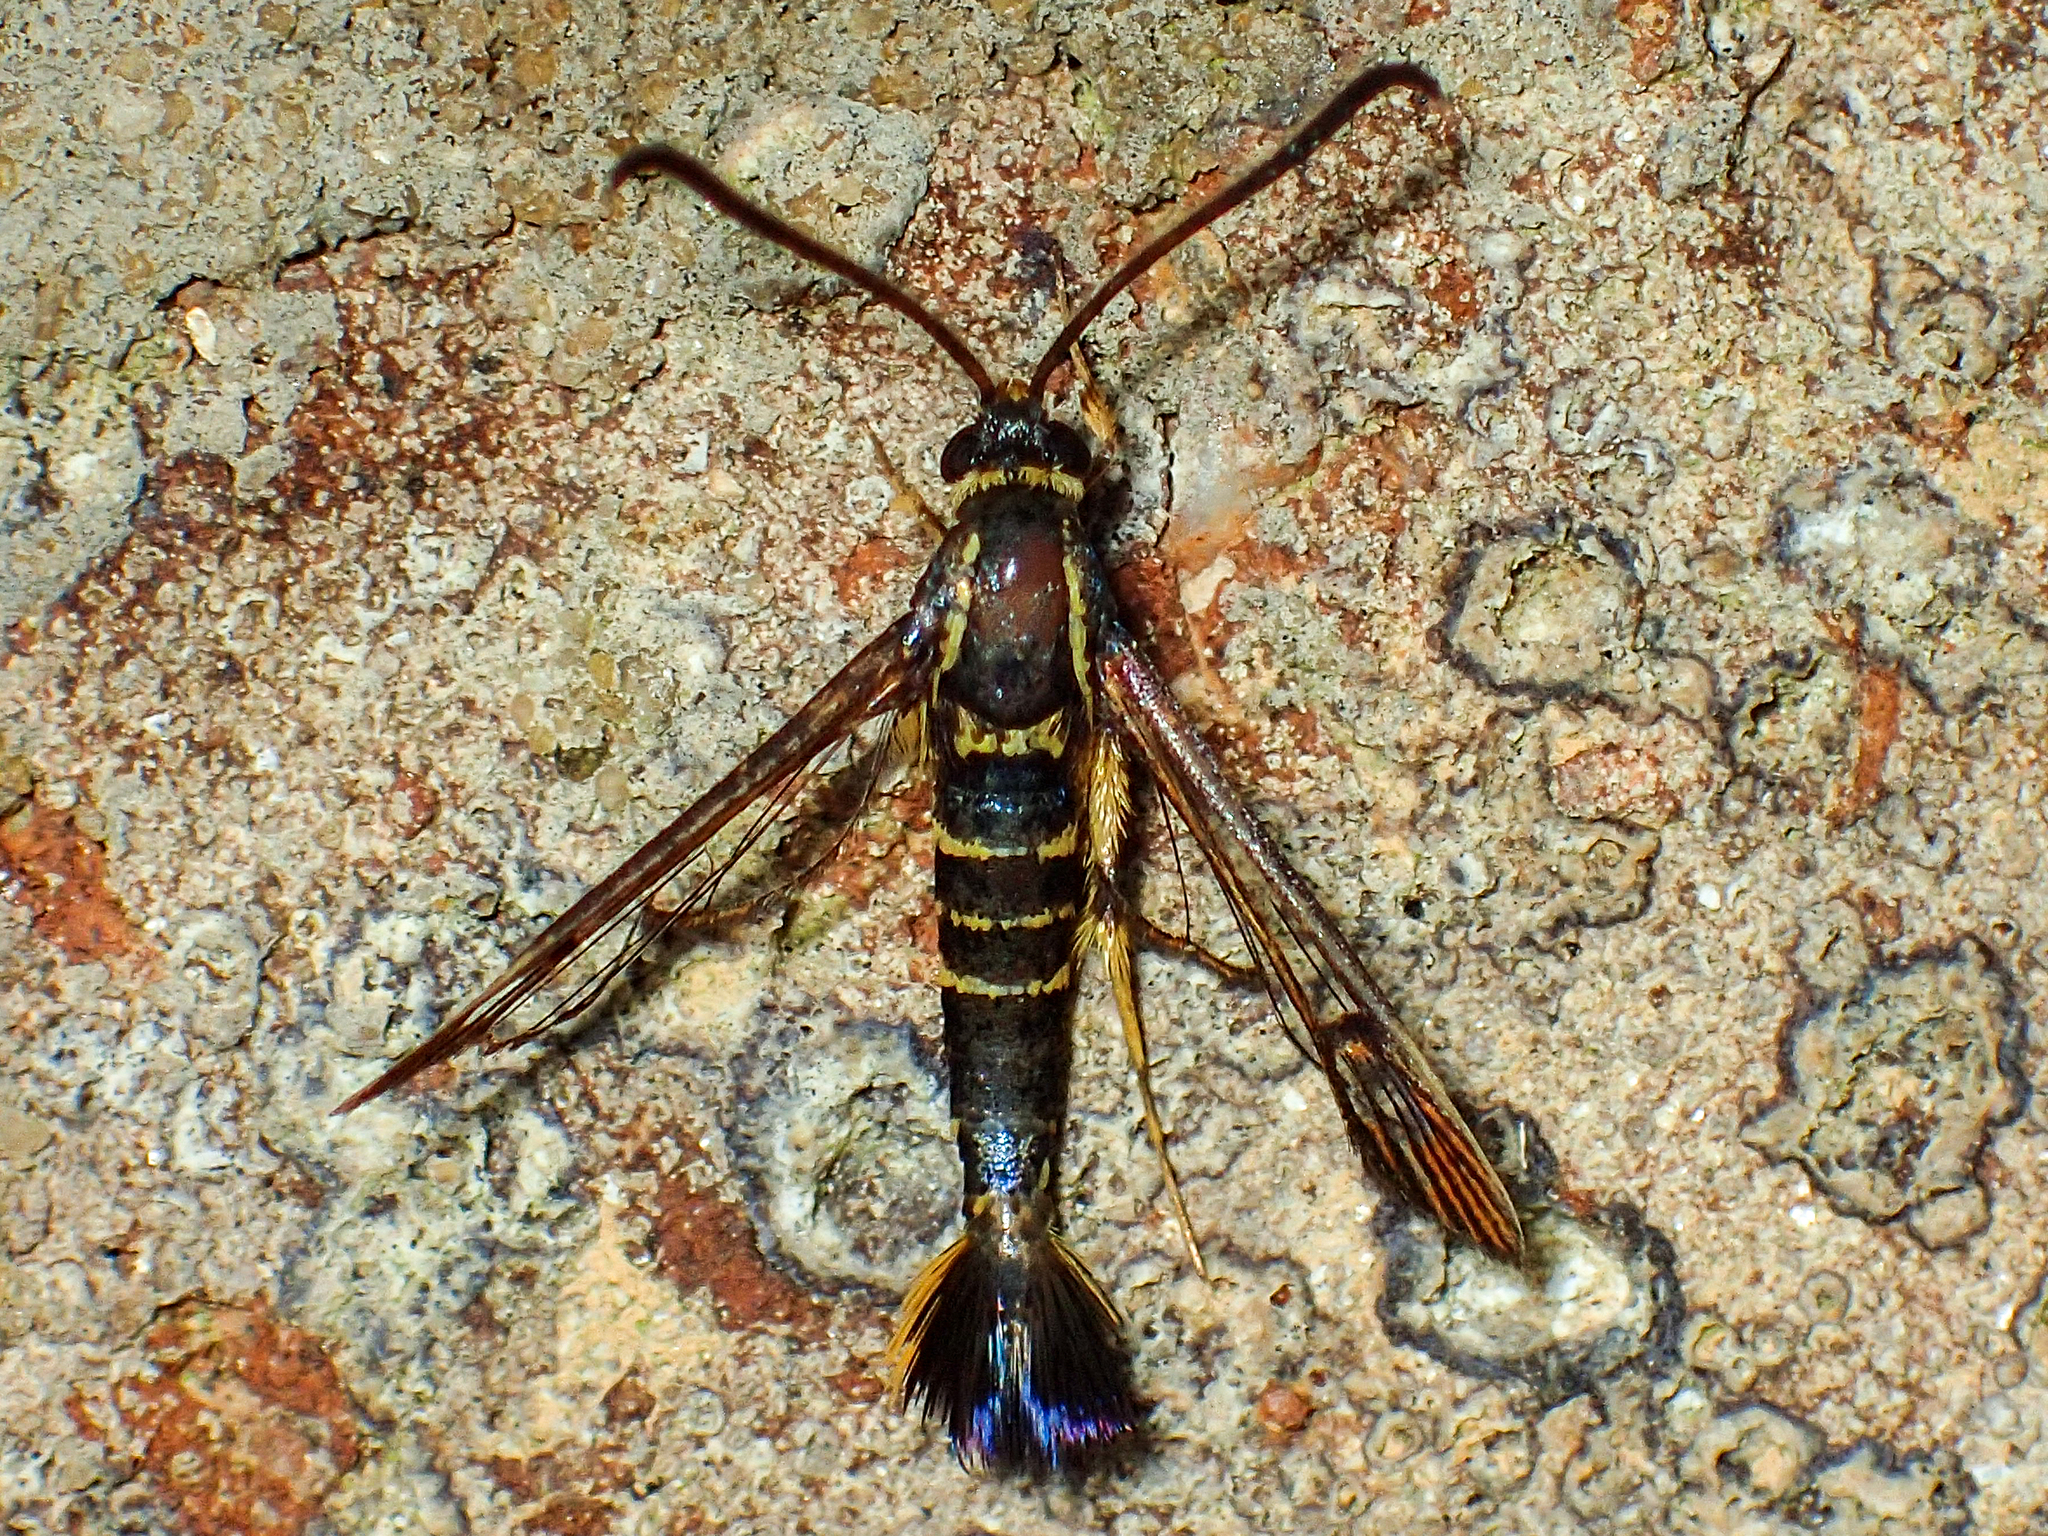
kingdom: Animalia
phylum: Arthropoda
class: Insecta
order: Lepidoptera
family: Sesiidae
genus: Synanthedon
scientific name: Synanthedon arkansasensis
